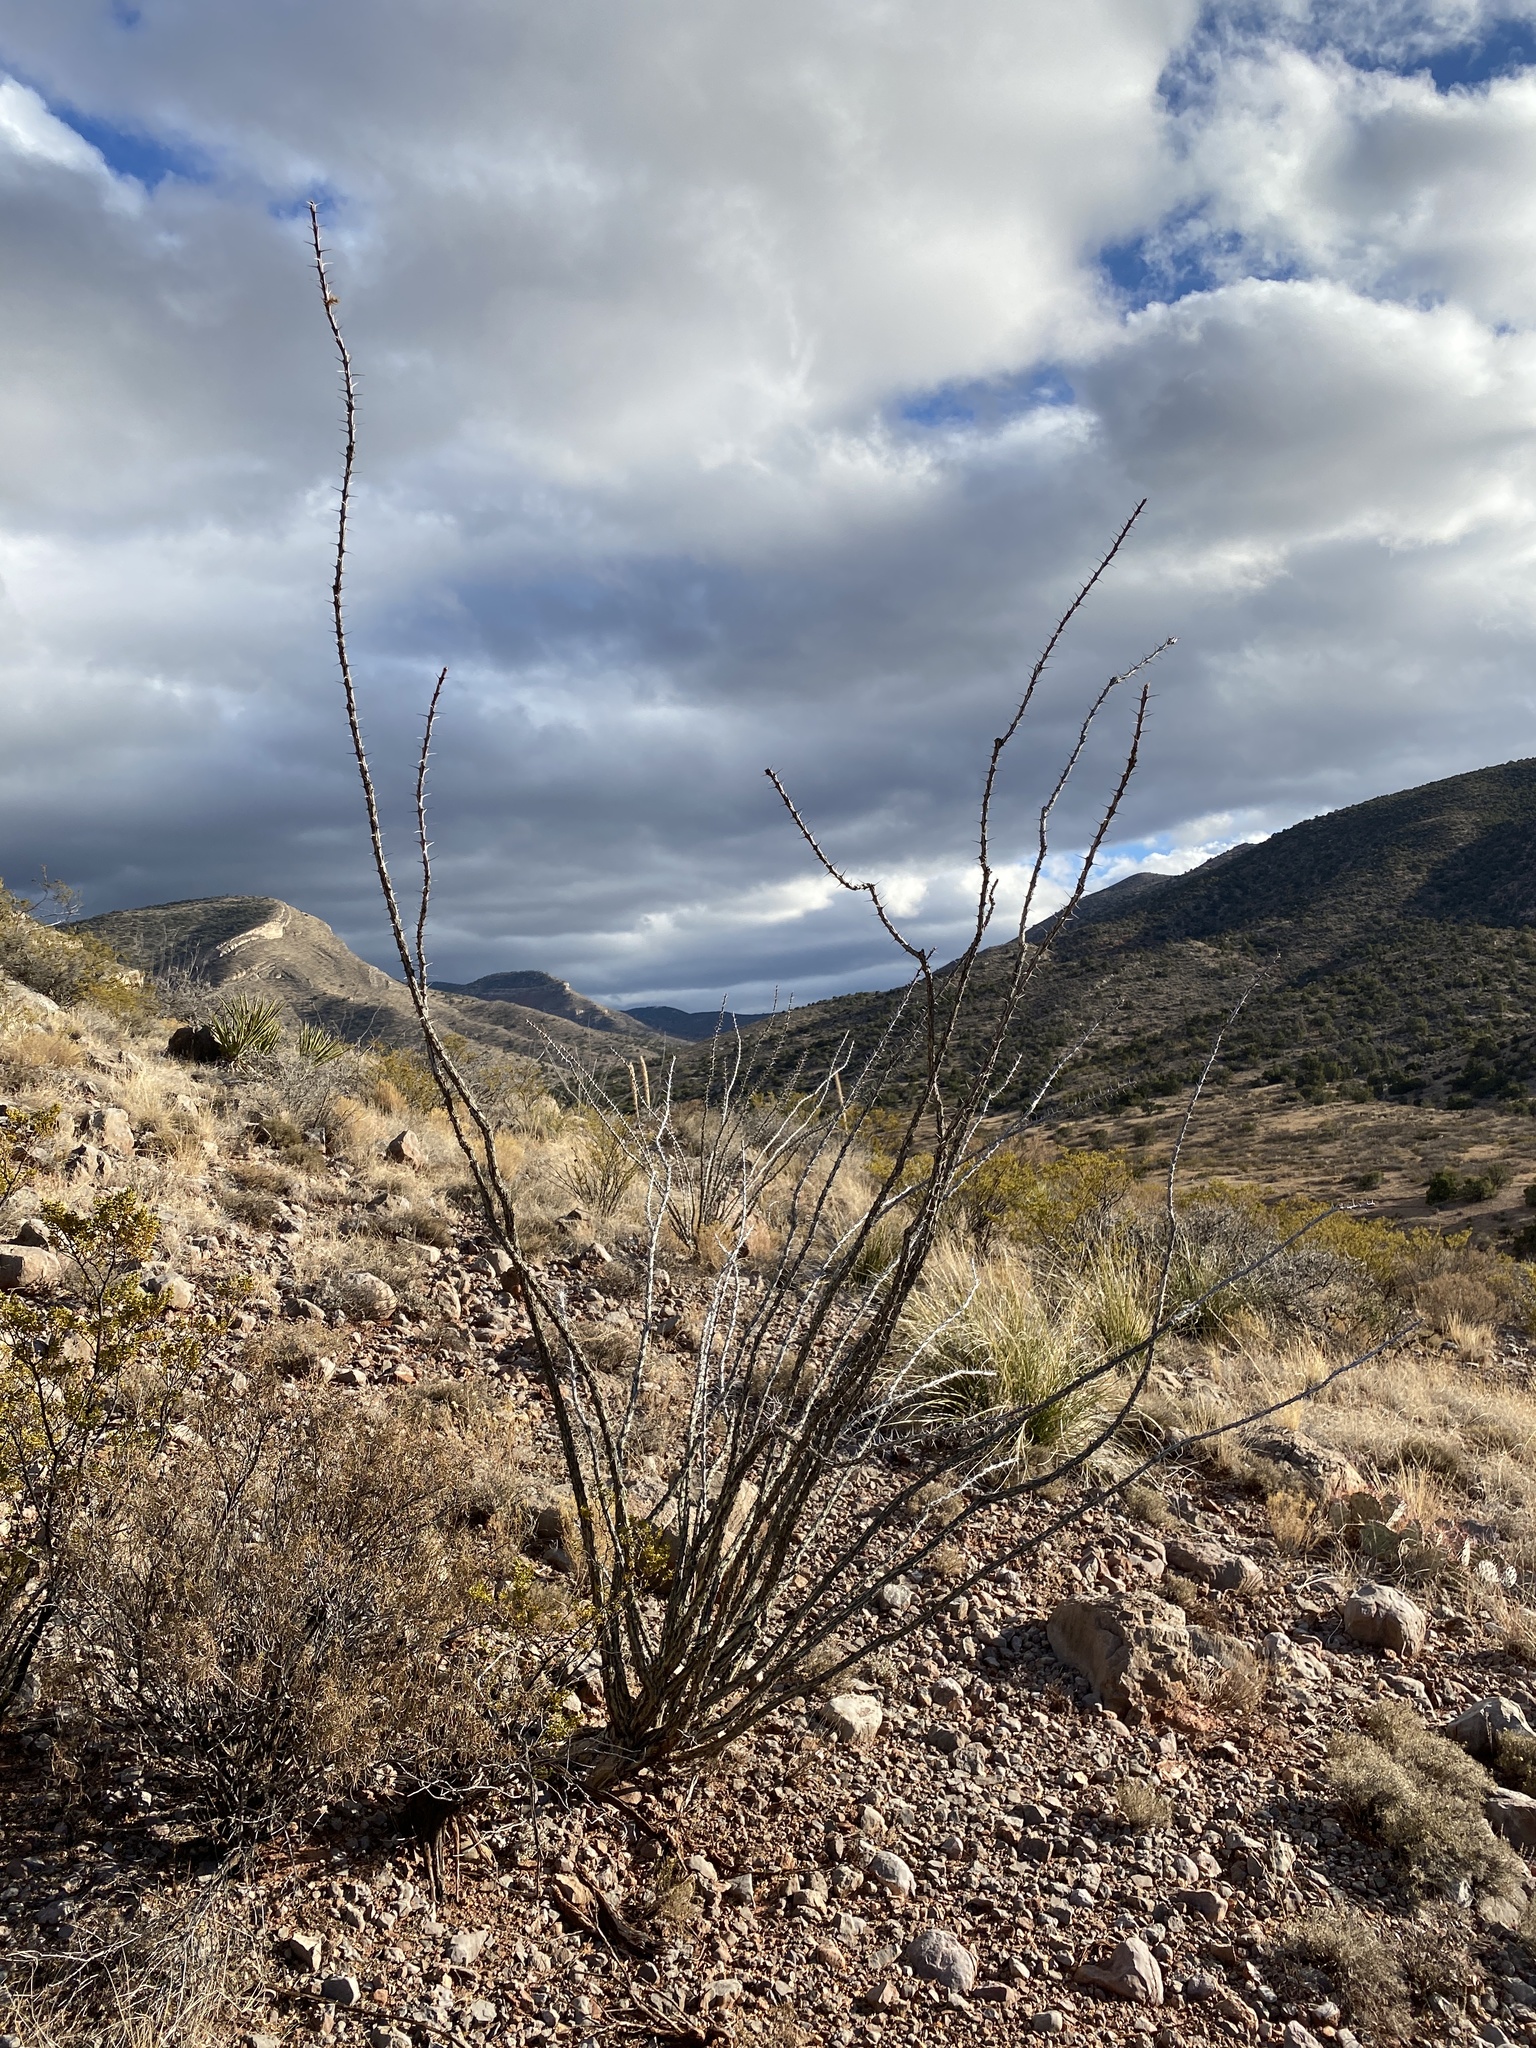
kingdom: Plantae
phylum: Tracheophyta
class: Magnoliopsida
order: Ericales
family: Fouquieriaceae
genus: Fouquieria
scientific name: Fouquieria splendens
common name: Vine-cactus
